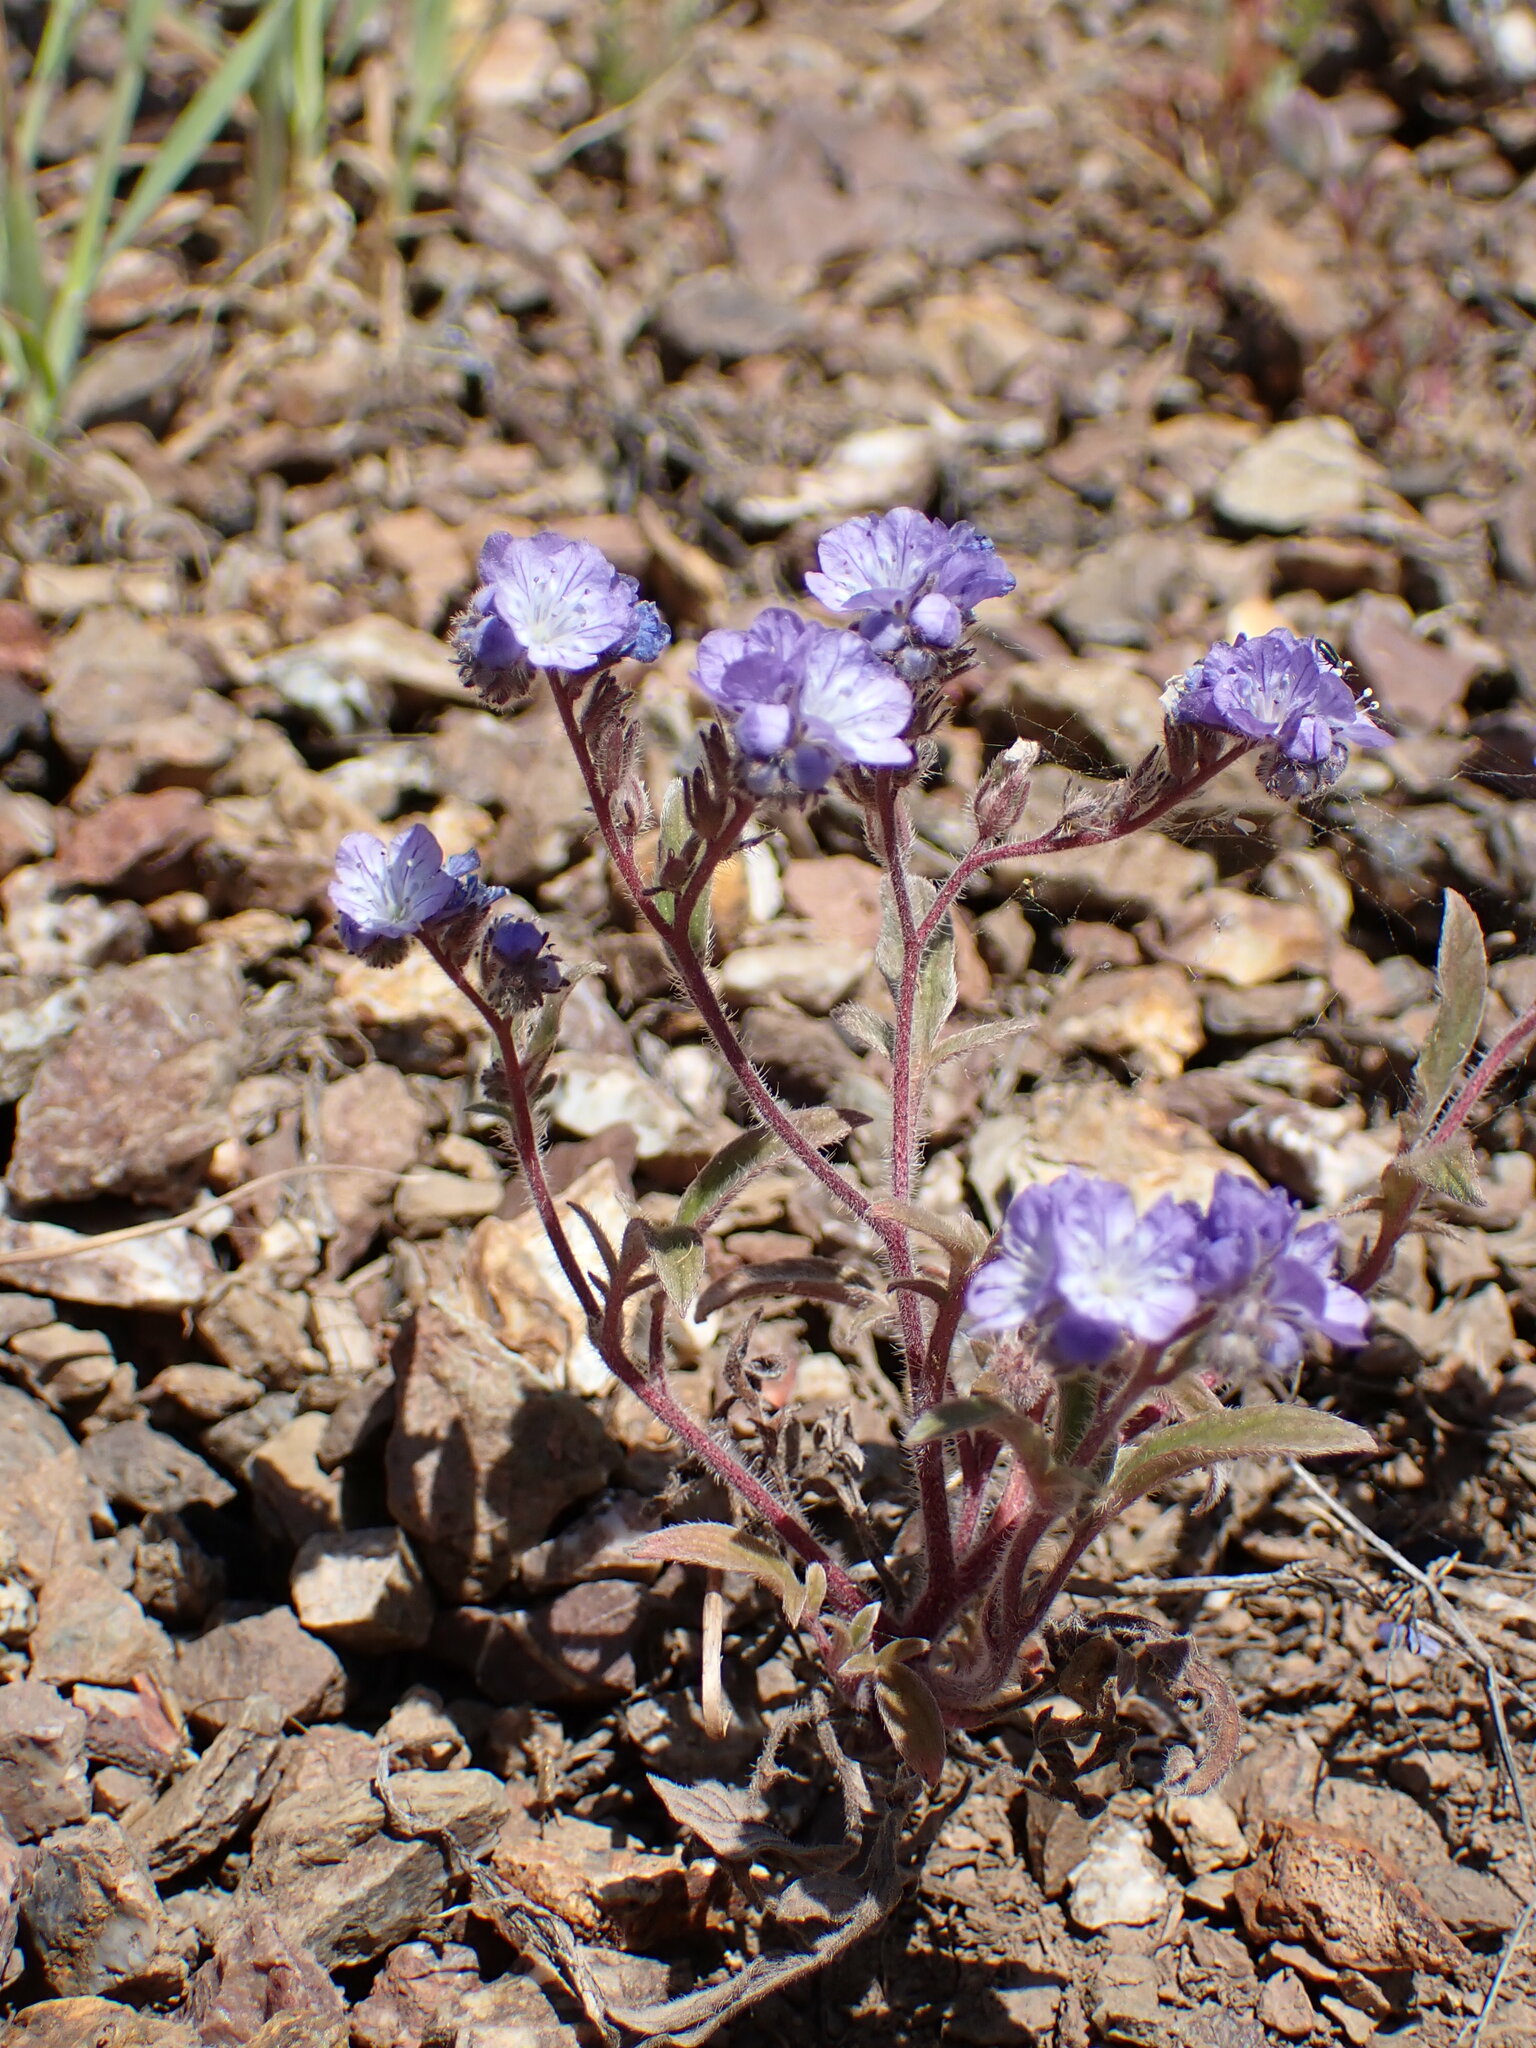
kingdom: Plantae
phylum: Tracheophyta
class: Magnoliopsida
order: Boraginales
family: Hydrophyllaceae
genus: Phacelia
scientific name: Phacelia breweri
